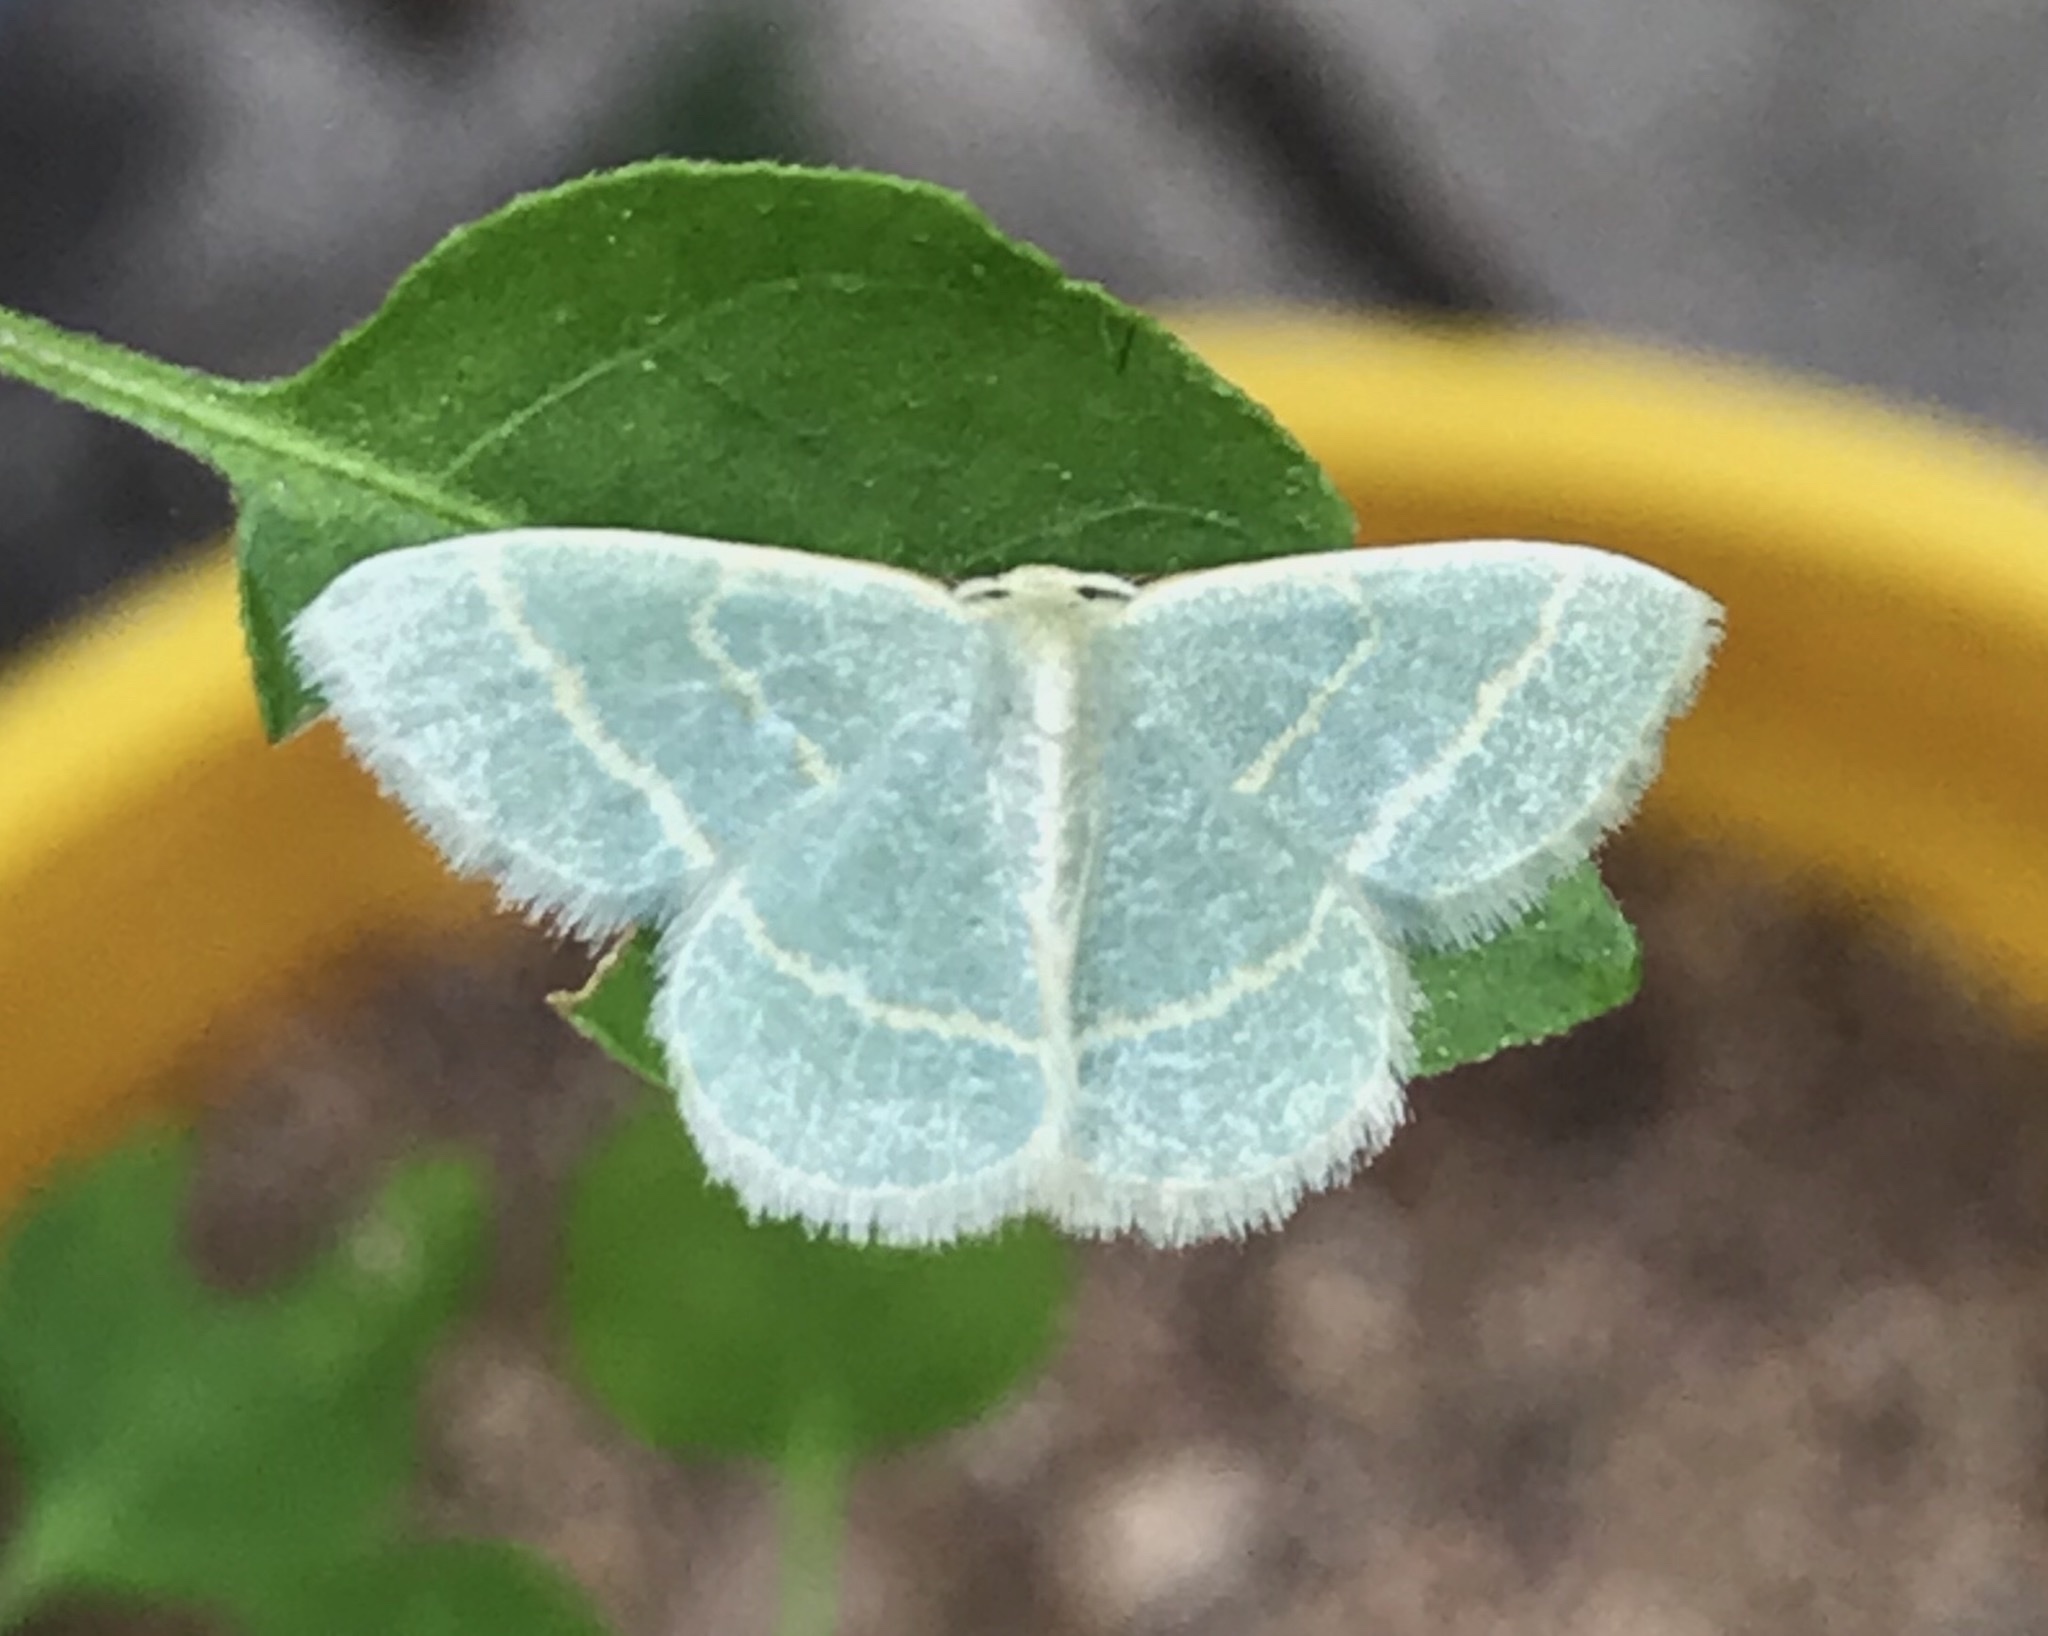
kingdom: Animalia
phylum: Arthropoda
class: Insecta
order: Lepidoptera
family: Geometridae
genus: Chlorochlamys
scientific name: Chlorochlamys chloroleucaria
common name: Blackberry looper
